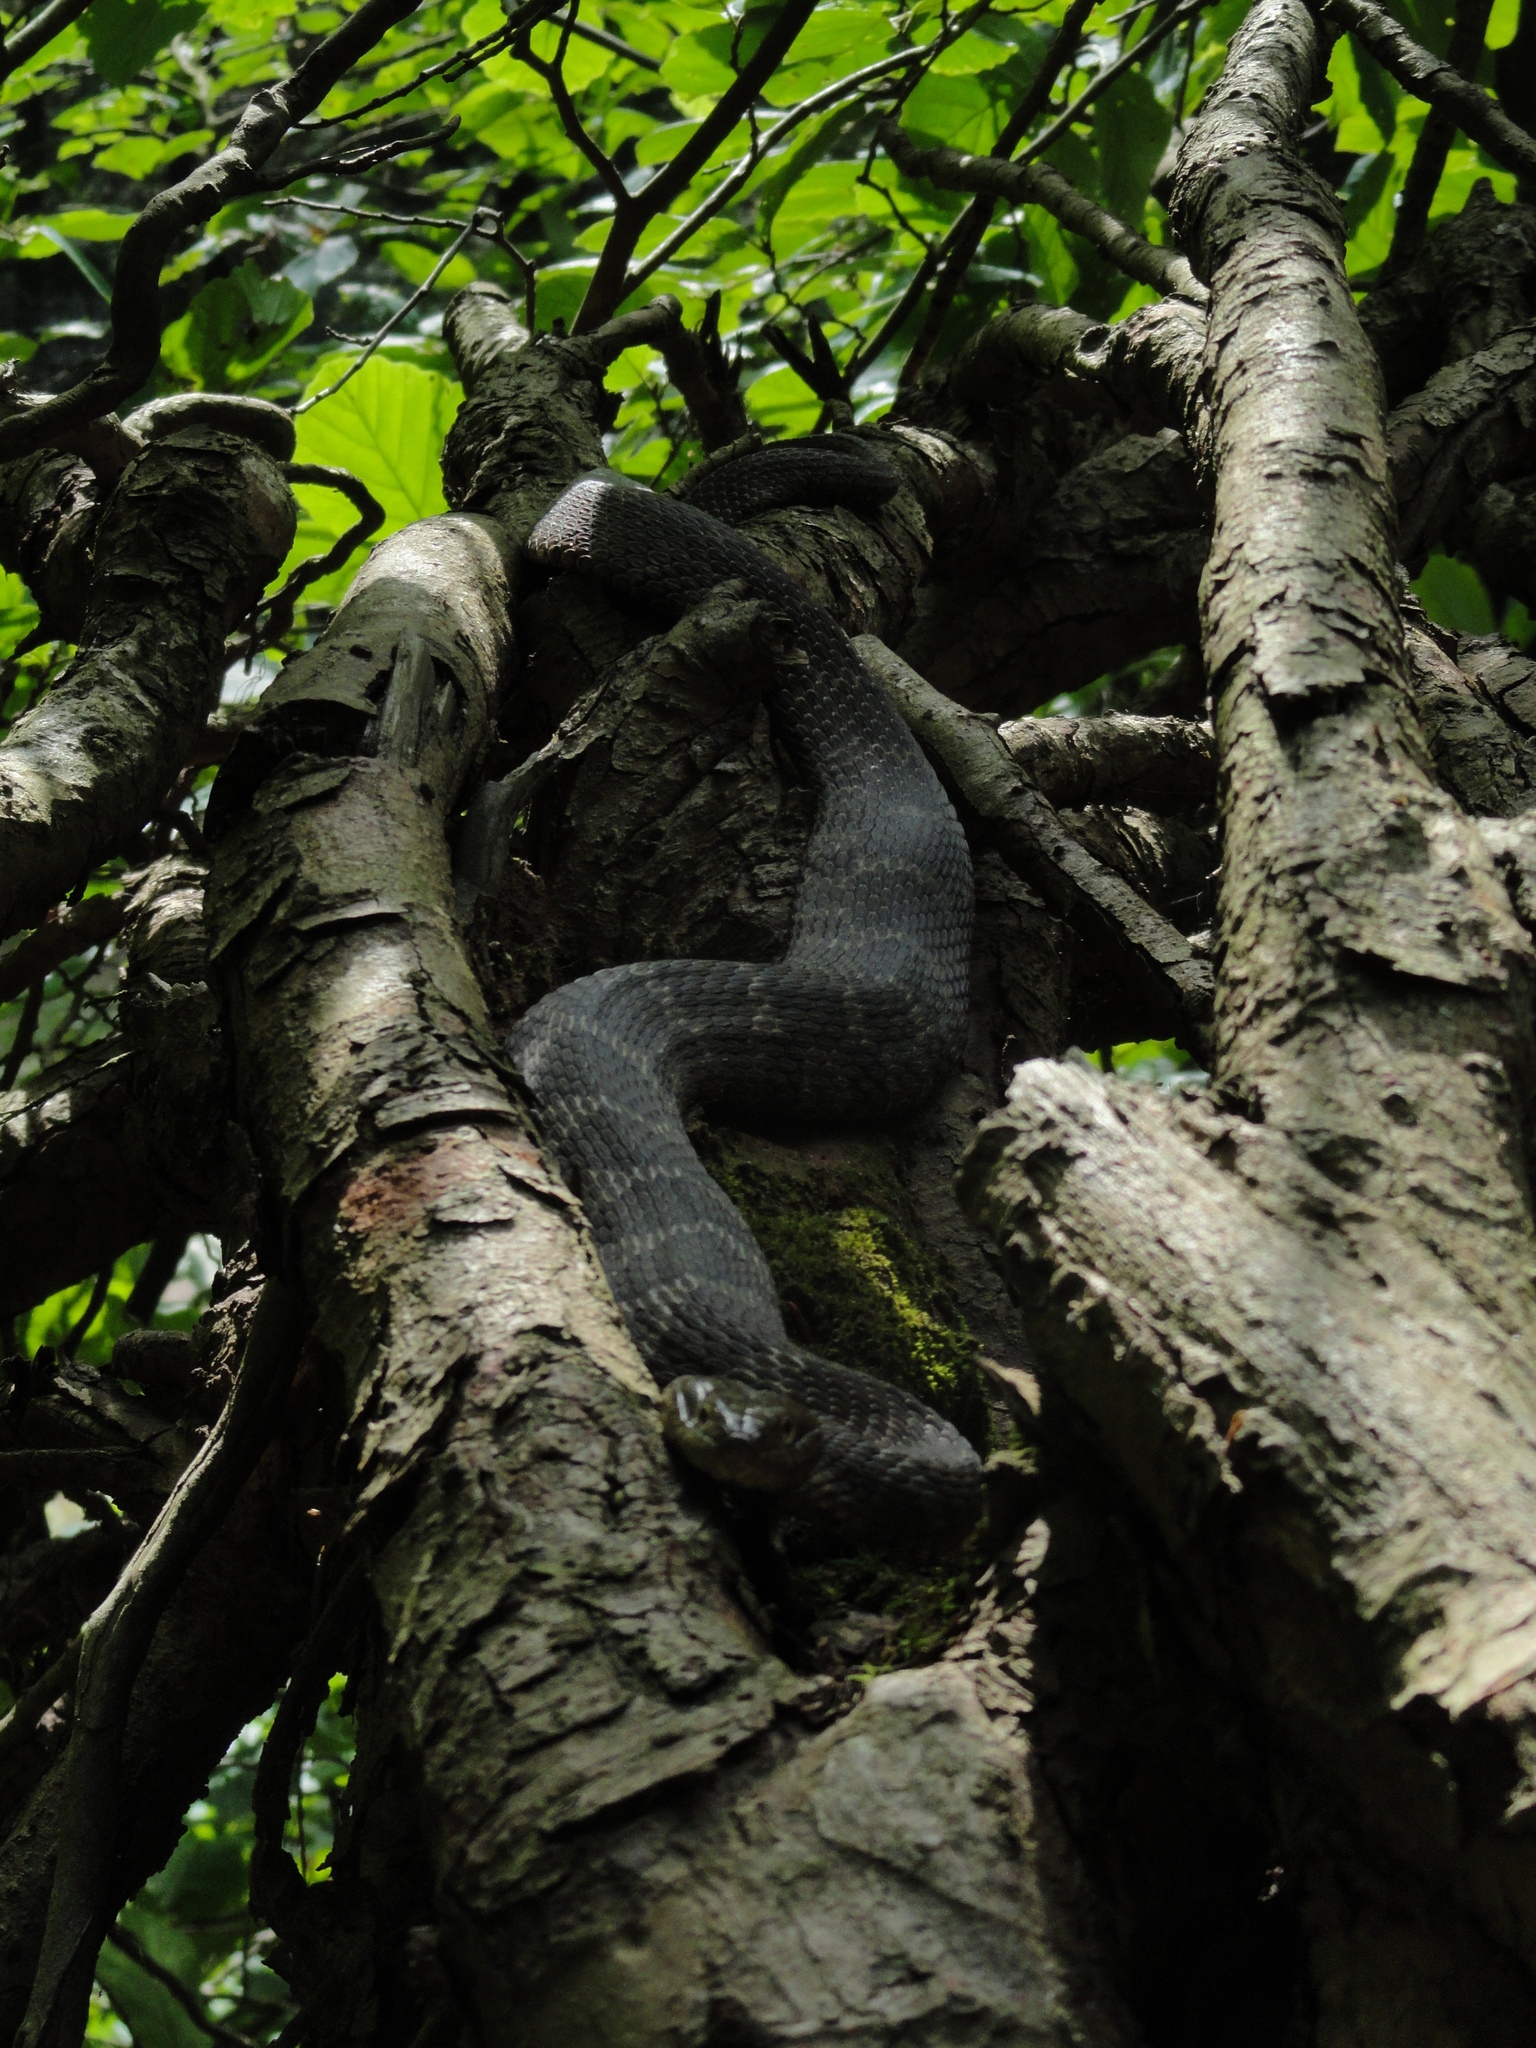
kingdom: Animalia
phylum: Chordata
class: Squamata
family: Colubridae
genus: Nerodia
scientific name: Nerodia sipedon
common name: Northern water snake
